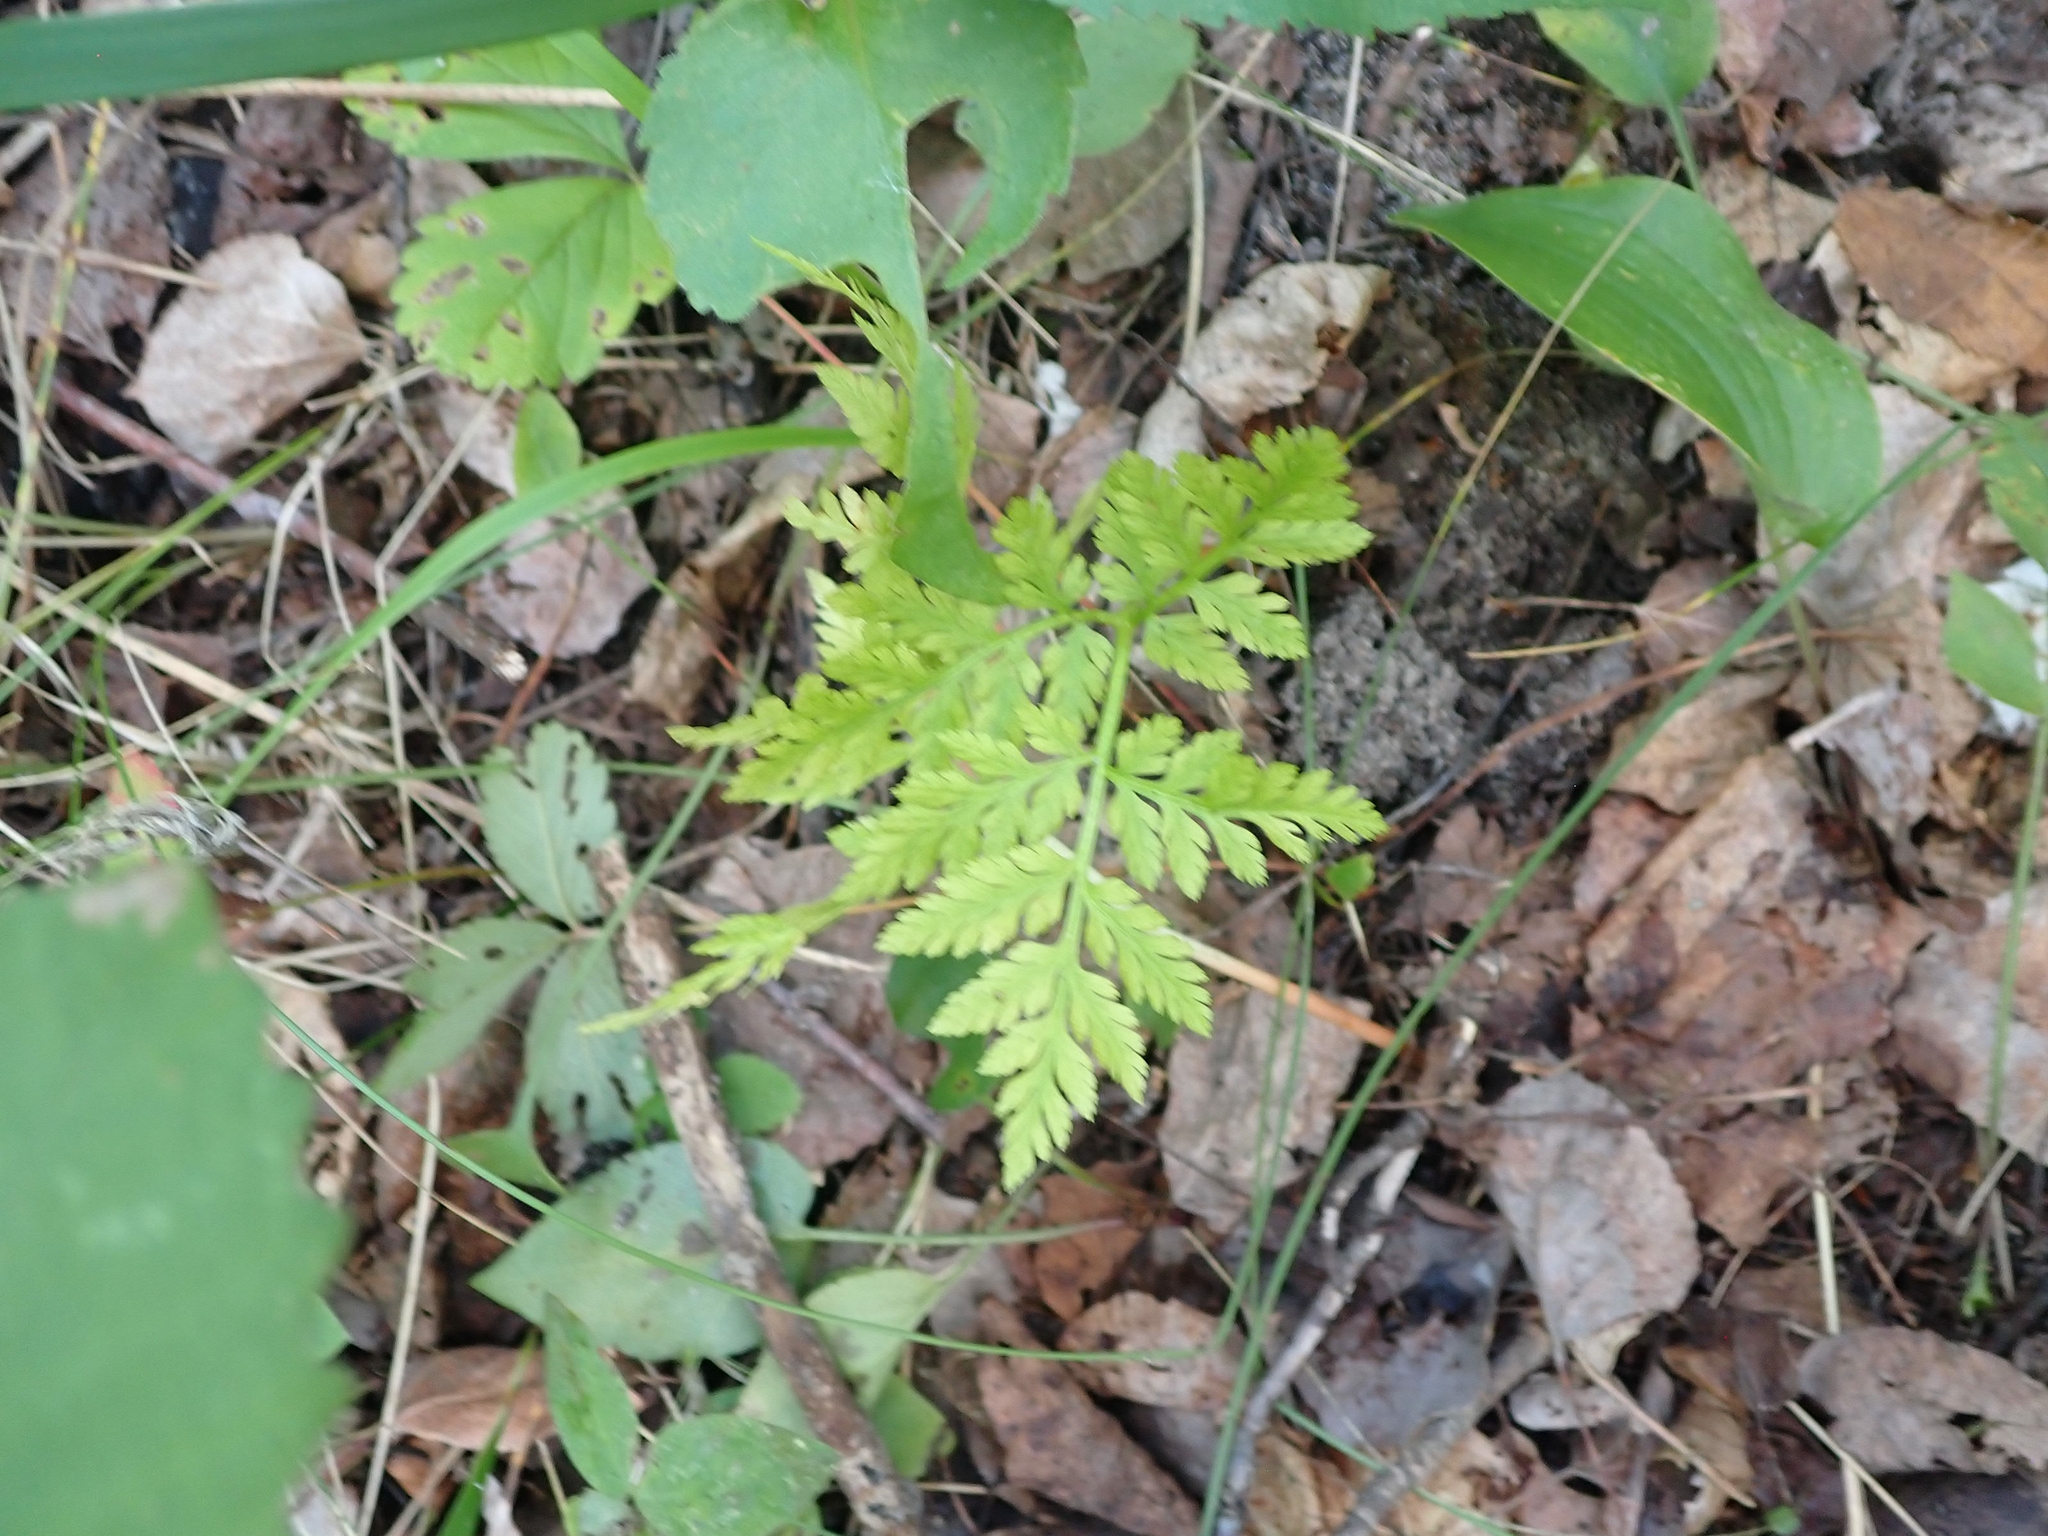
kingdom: Plantae
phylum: Tracheophyta
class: Polypodiopsida
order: Ophioglossales
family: Ophioglossaceae
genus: Botrypus
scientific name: Botrypus virginianus
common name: Common grapefern
